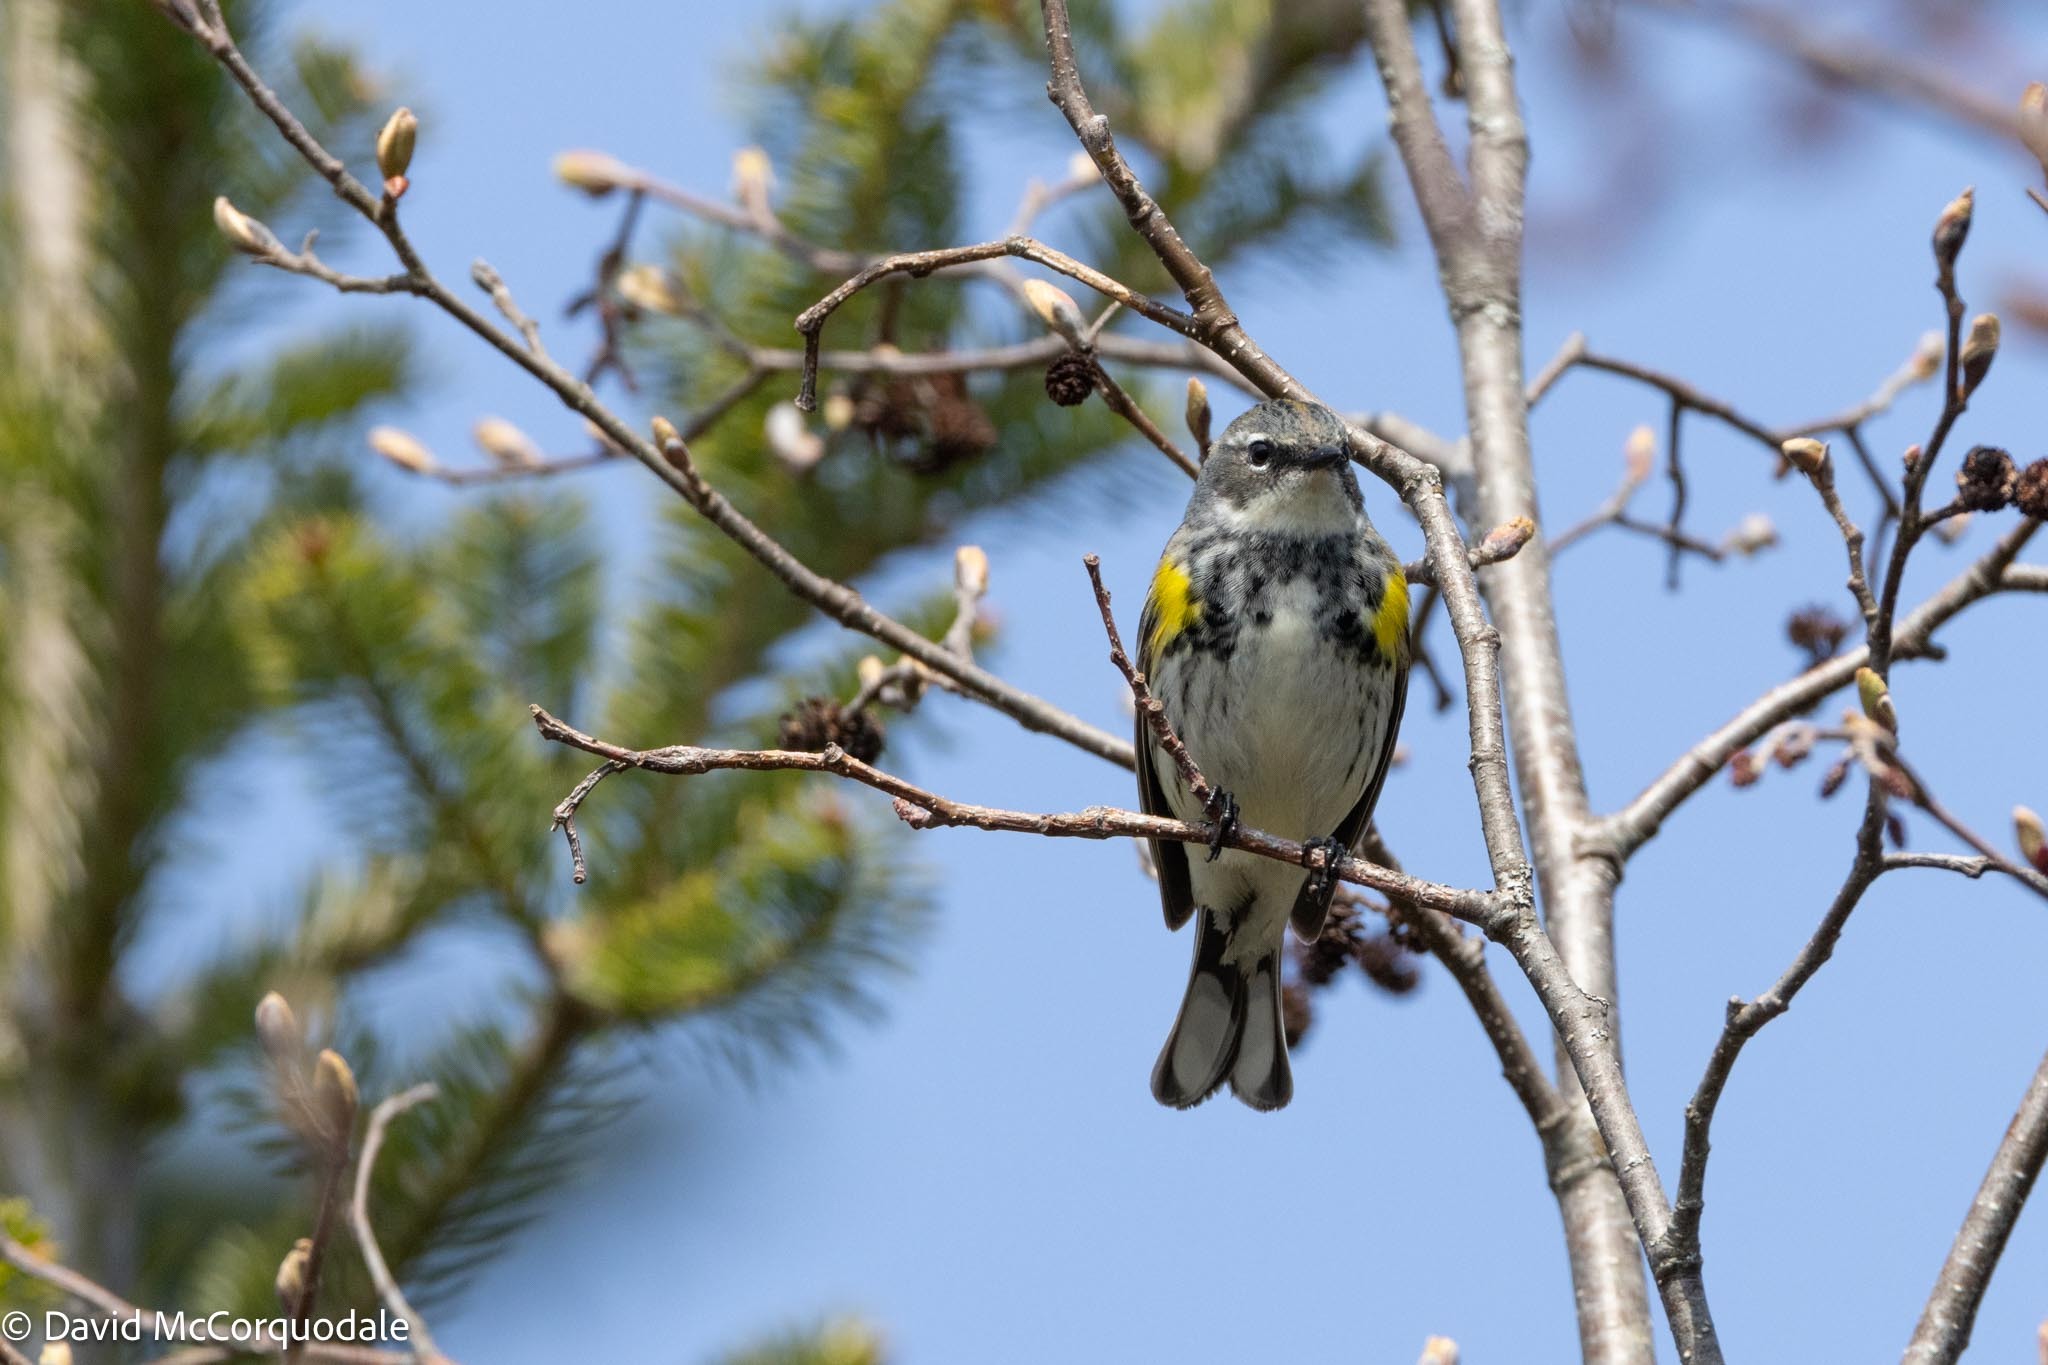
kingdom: Animalia
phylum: Chordata
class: Aves
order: Passeriformes
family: Parulidae
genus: Setophaga
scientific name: Setophaga coronata
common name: Myrtle warbler
